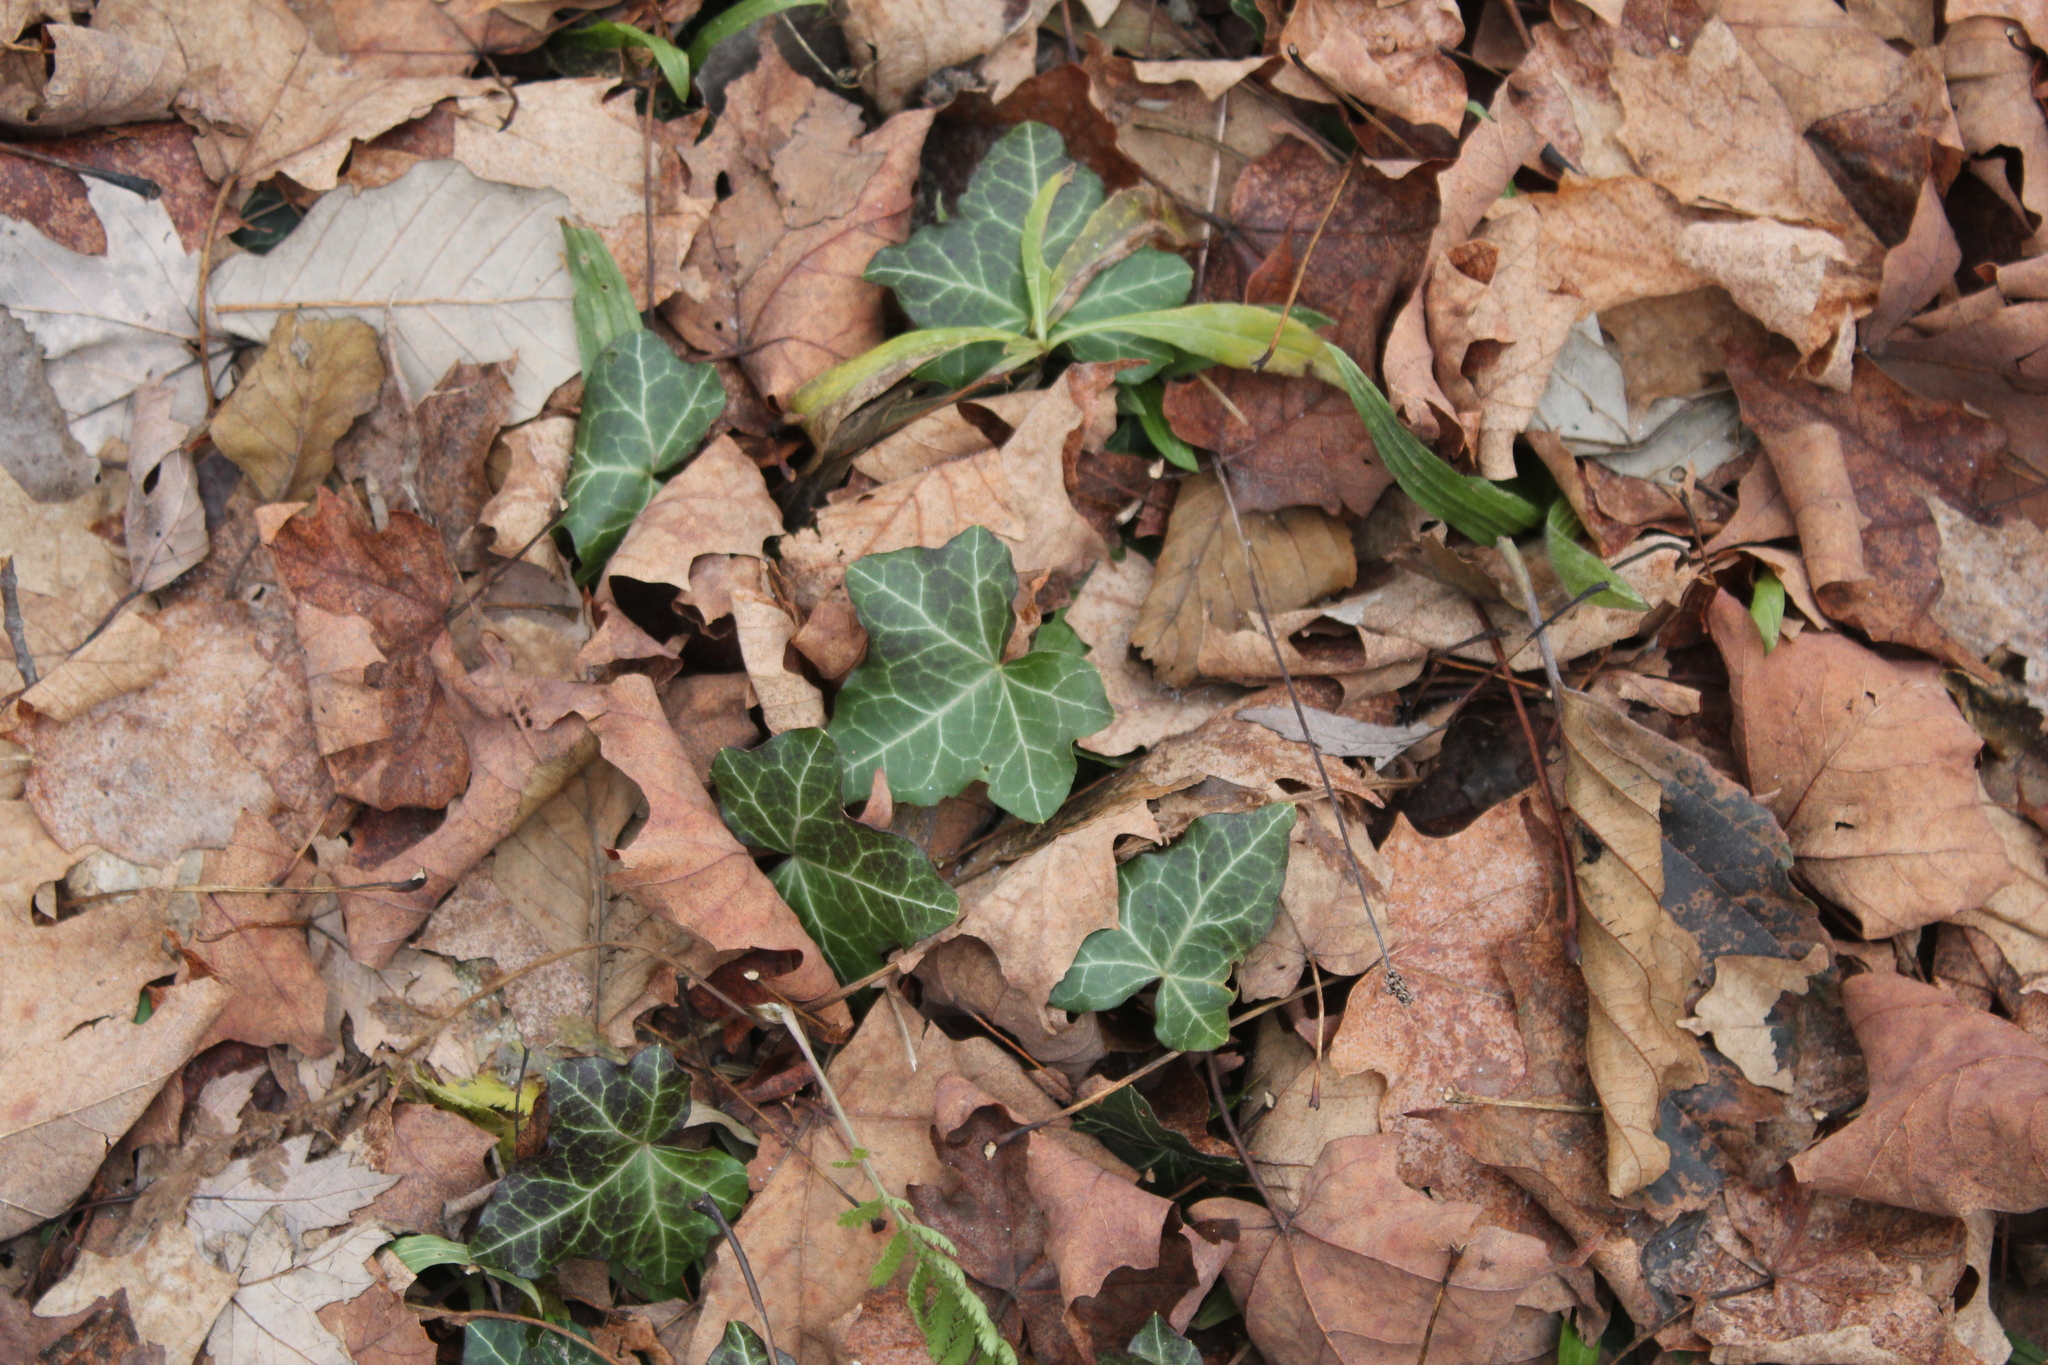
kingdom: Plantae
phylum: Tracheophyta
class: Magnoliopsida
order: Apiales
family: Araliaceae
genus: Hedera
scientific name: Hedera helix
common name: Ivy
